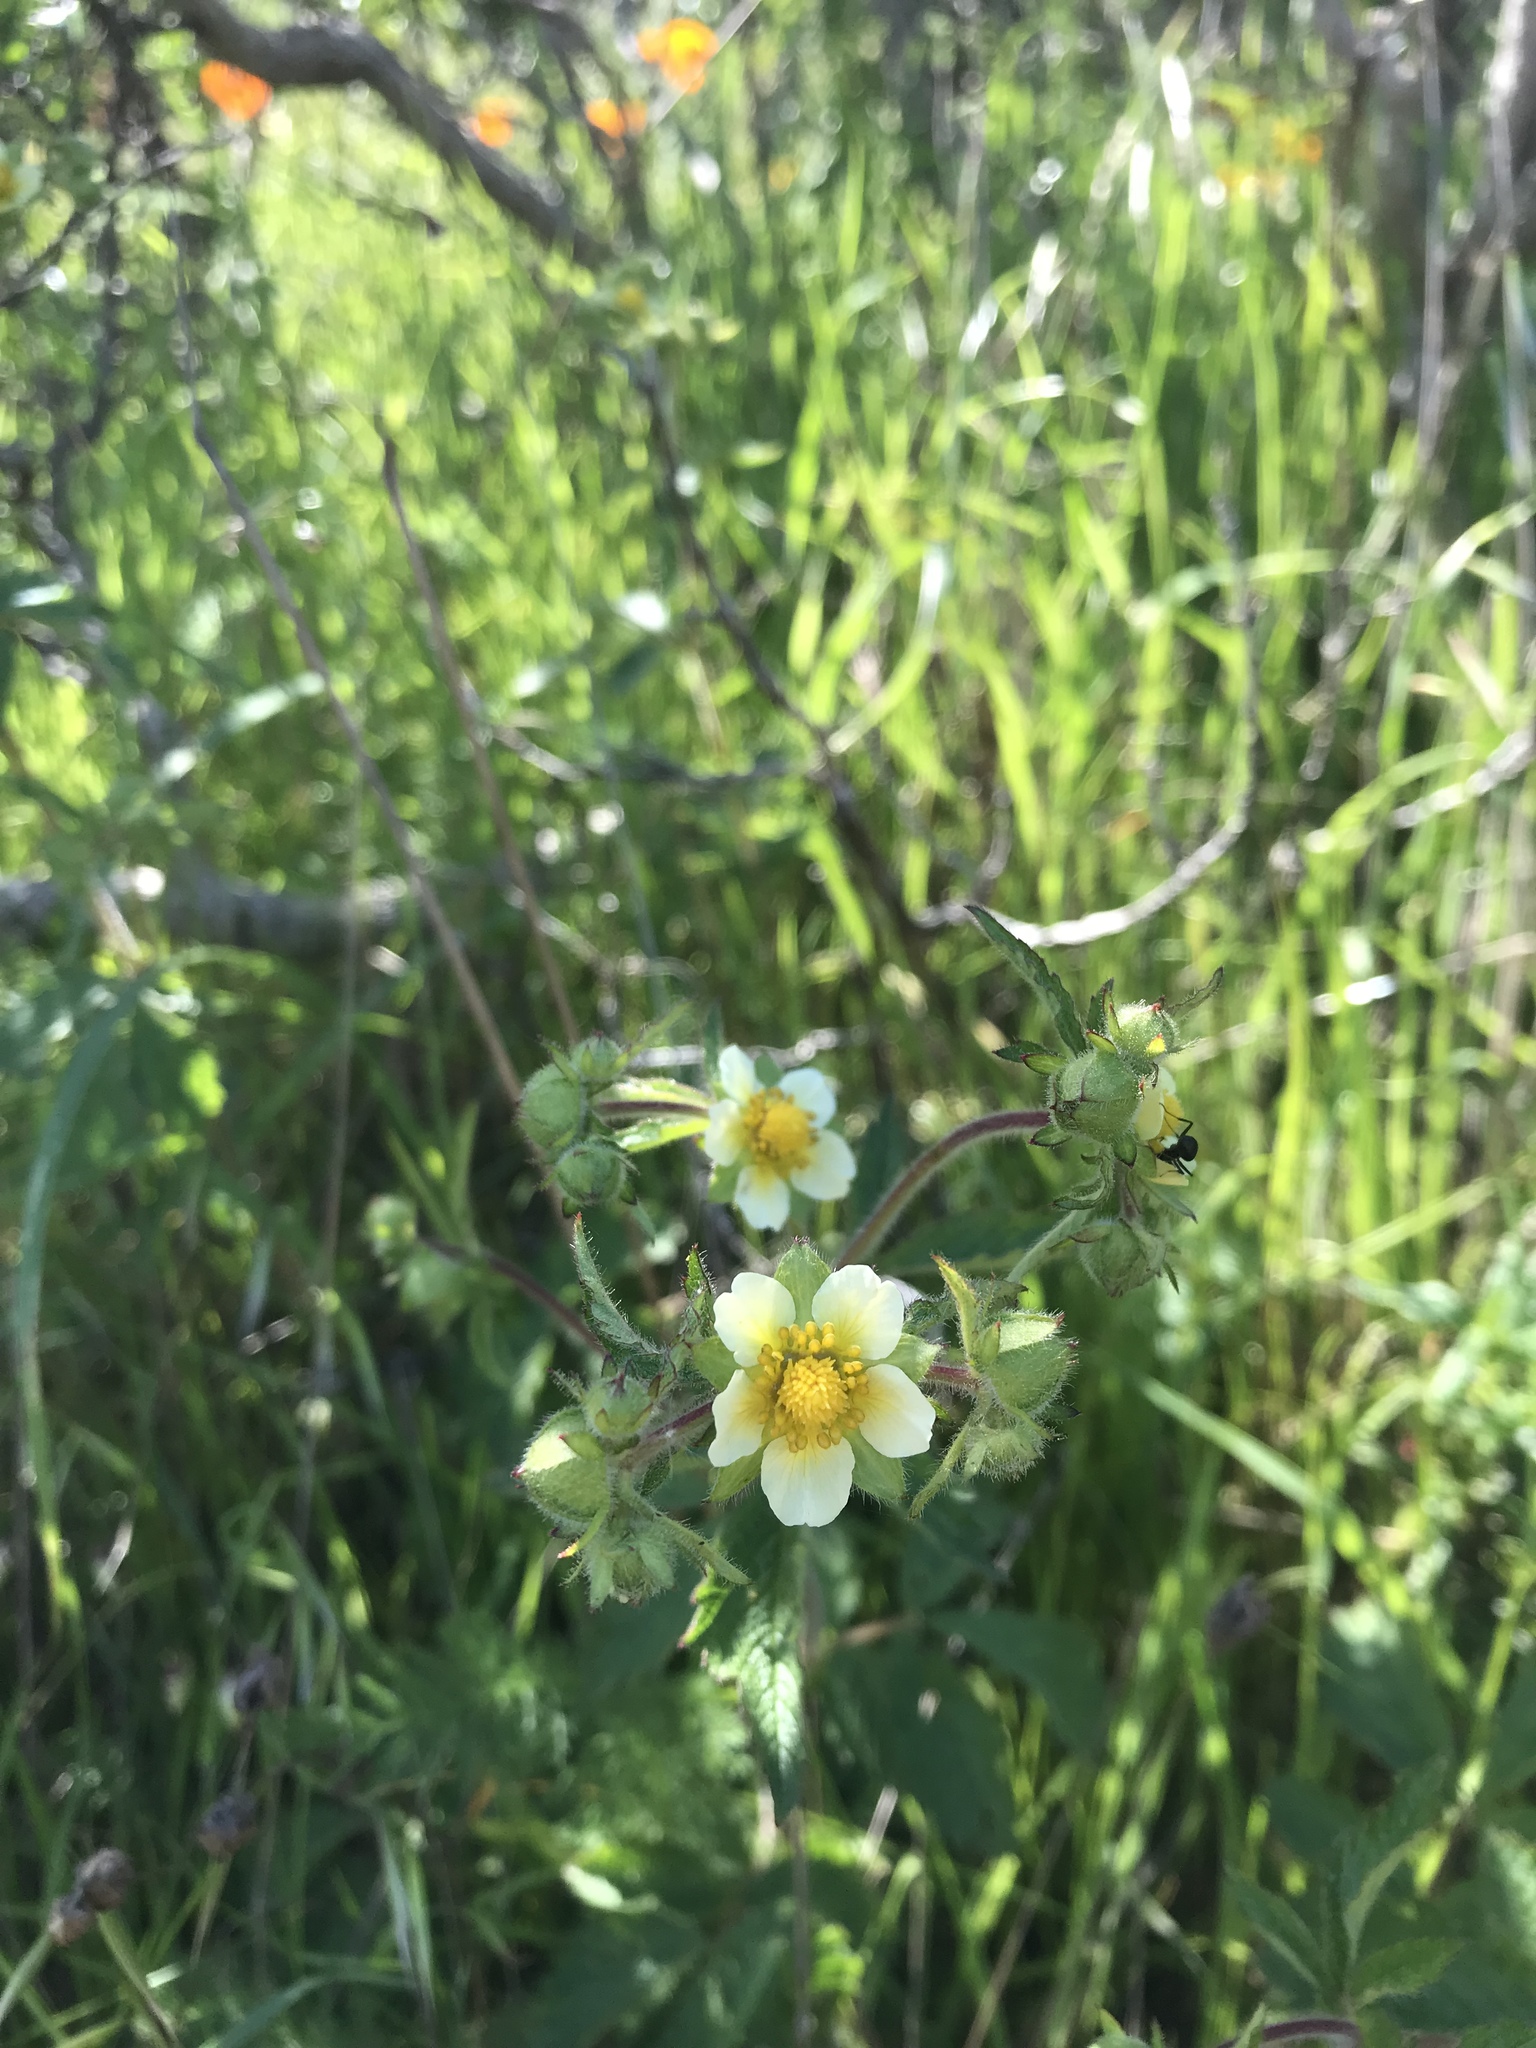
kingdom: Plantae
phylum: Tracheophyta
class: Magnoliopsida
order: Rosales
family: Rosaceae
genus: Drymocallis
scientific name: Drymocallis glandulosa
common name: Sticky cinquefoil
